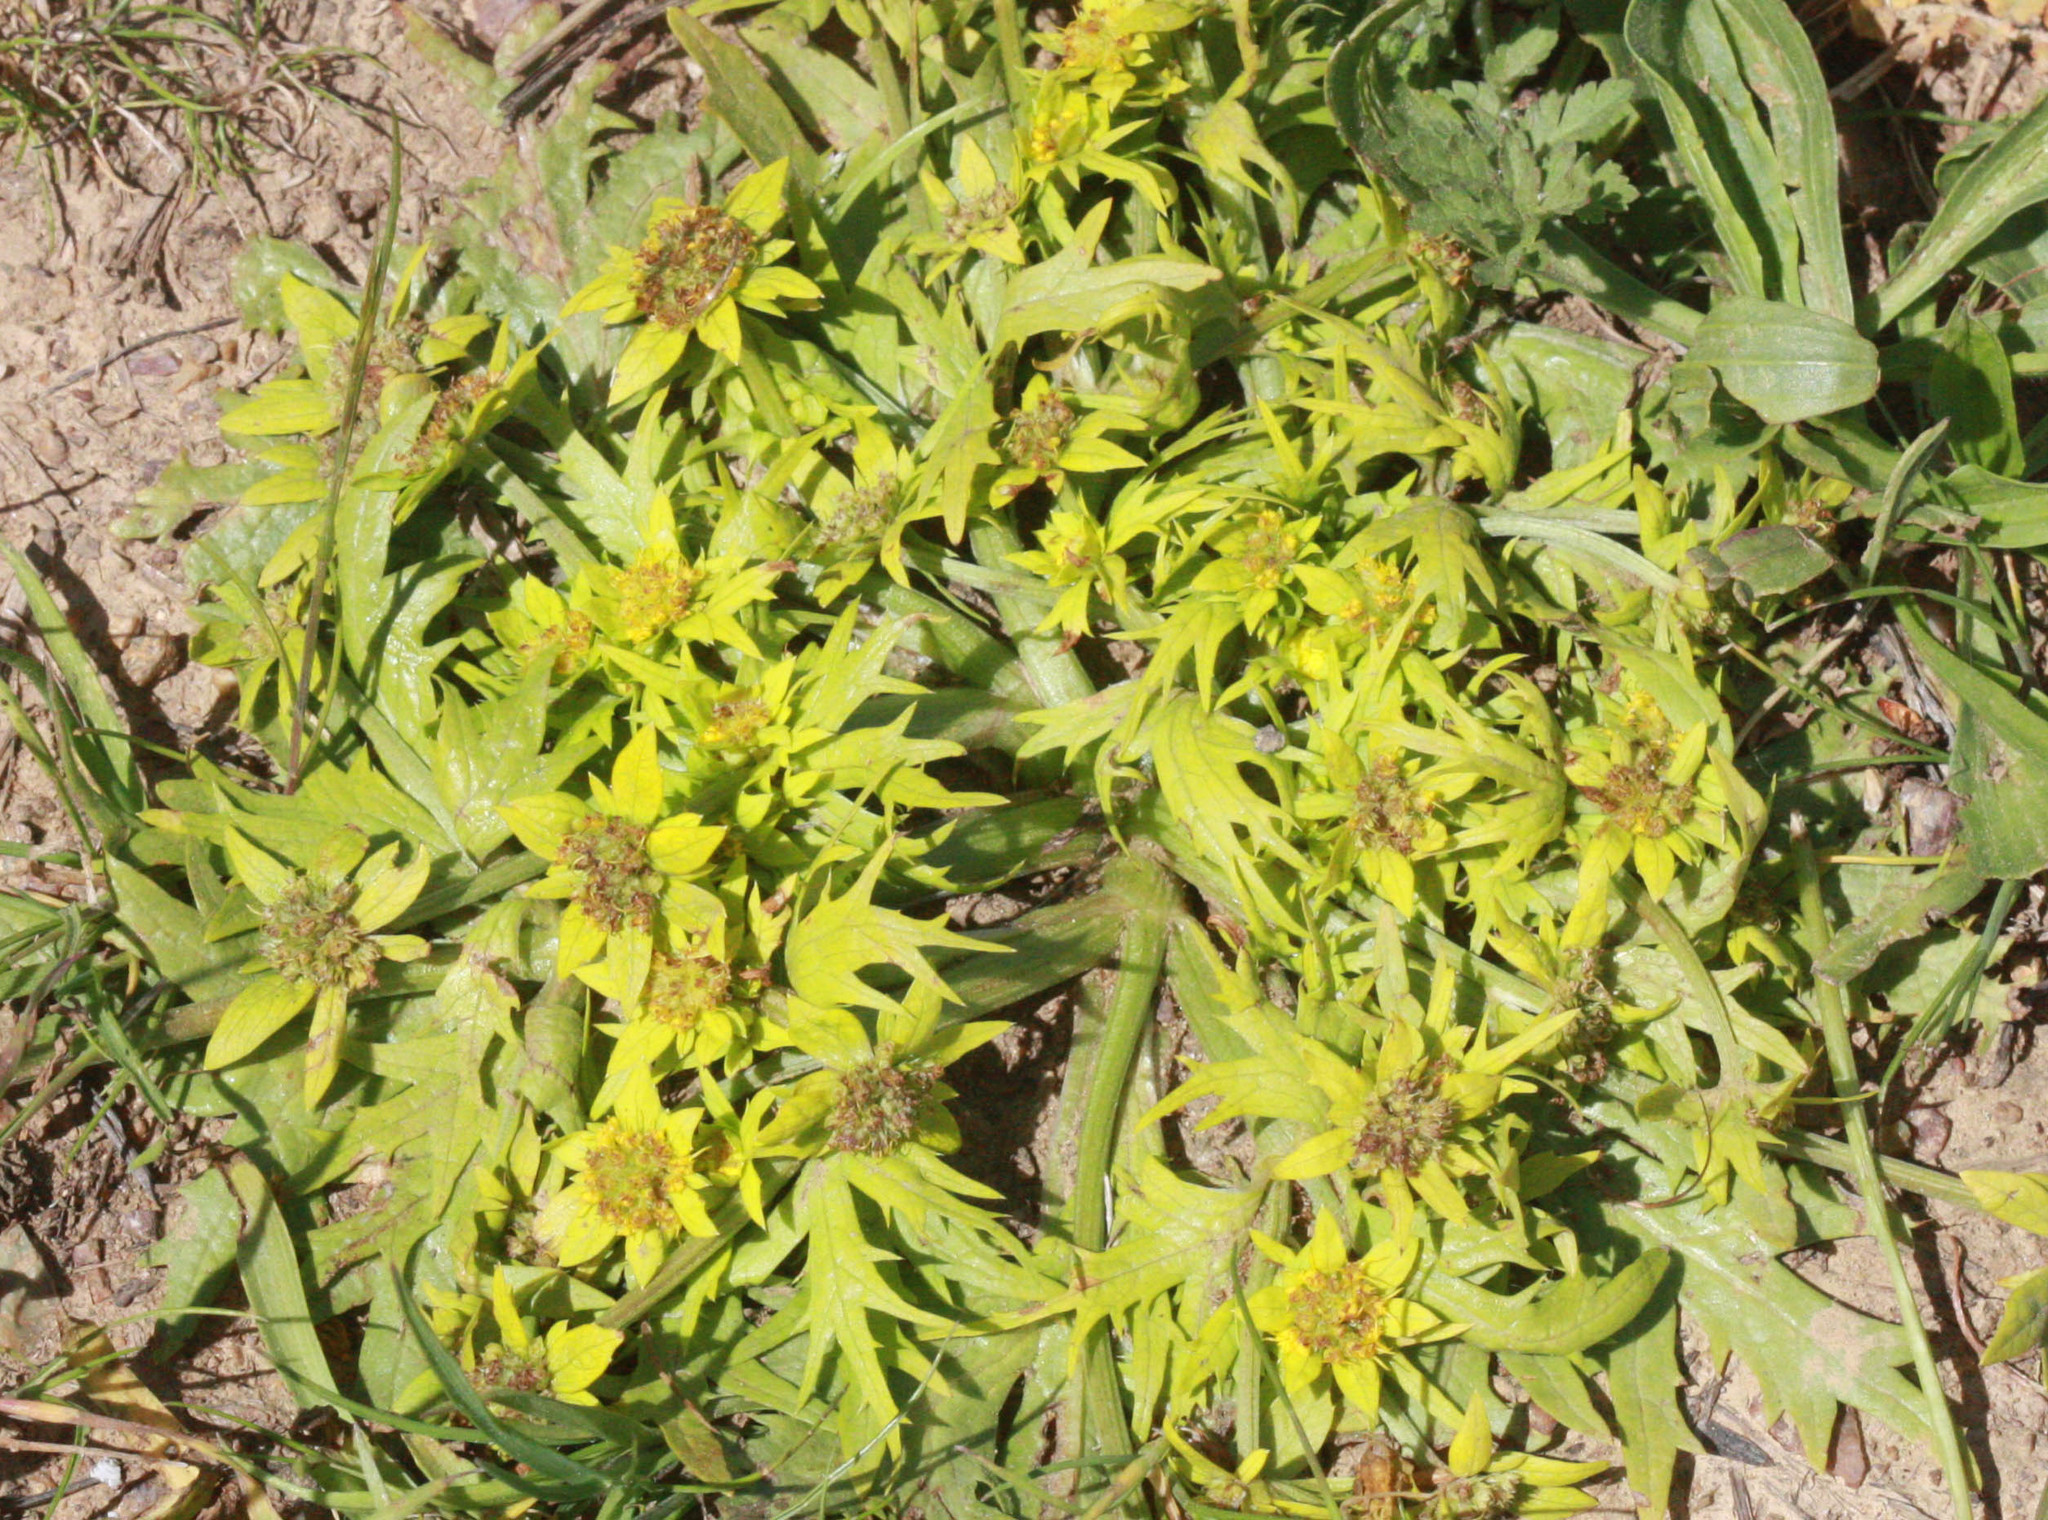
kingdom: Plantae
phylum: Tracheophyta
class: Magnoliopsida
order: Apiales
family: Apiaceae
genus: Sanicula
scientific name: Sanicula arctopoides
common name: Footsteps-of-spring
